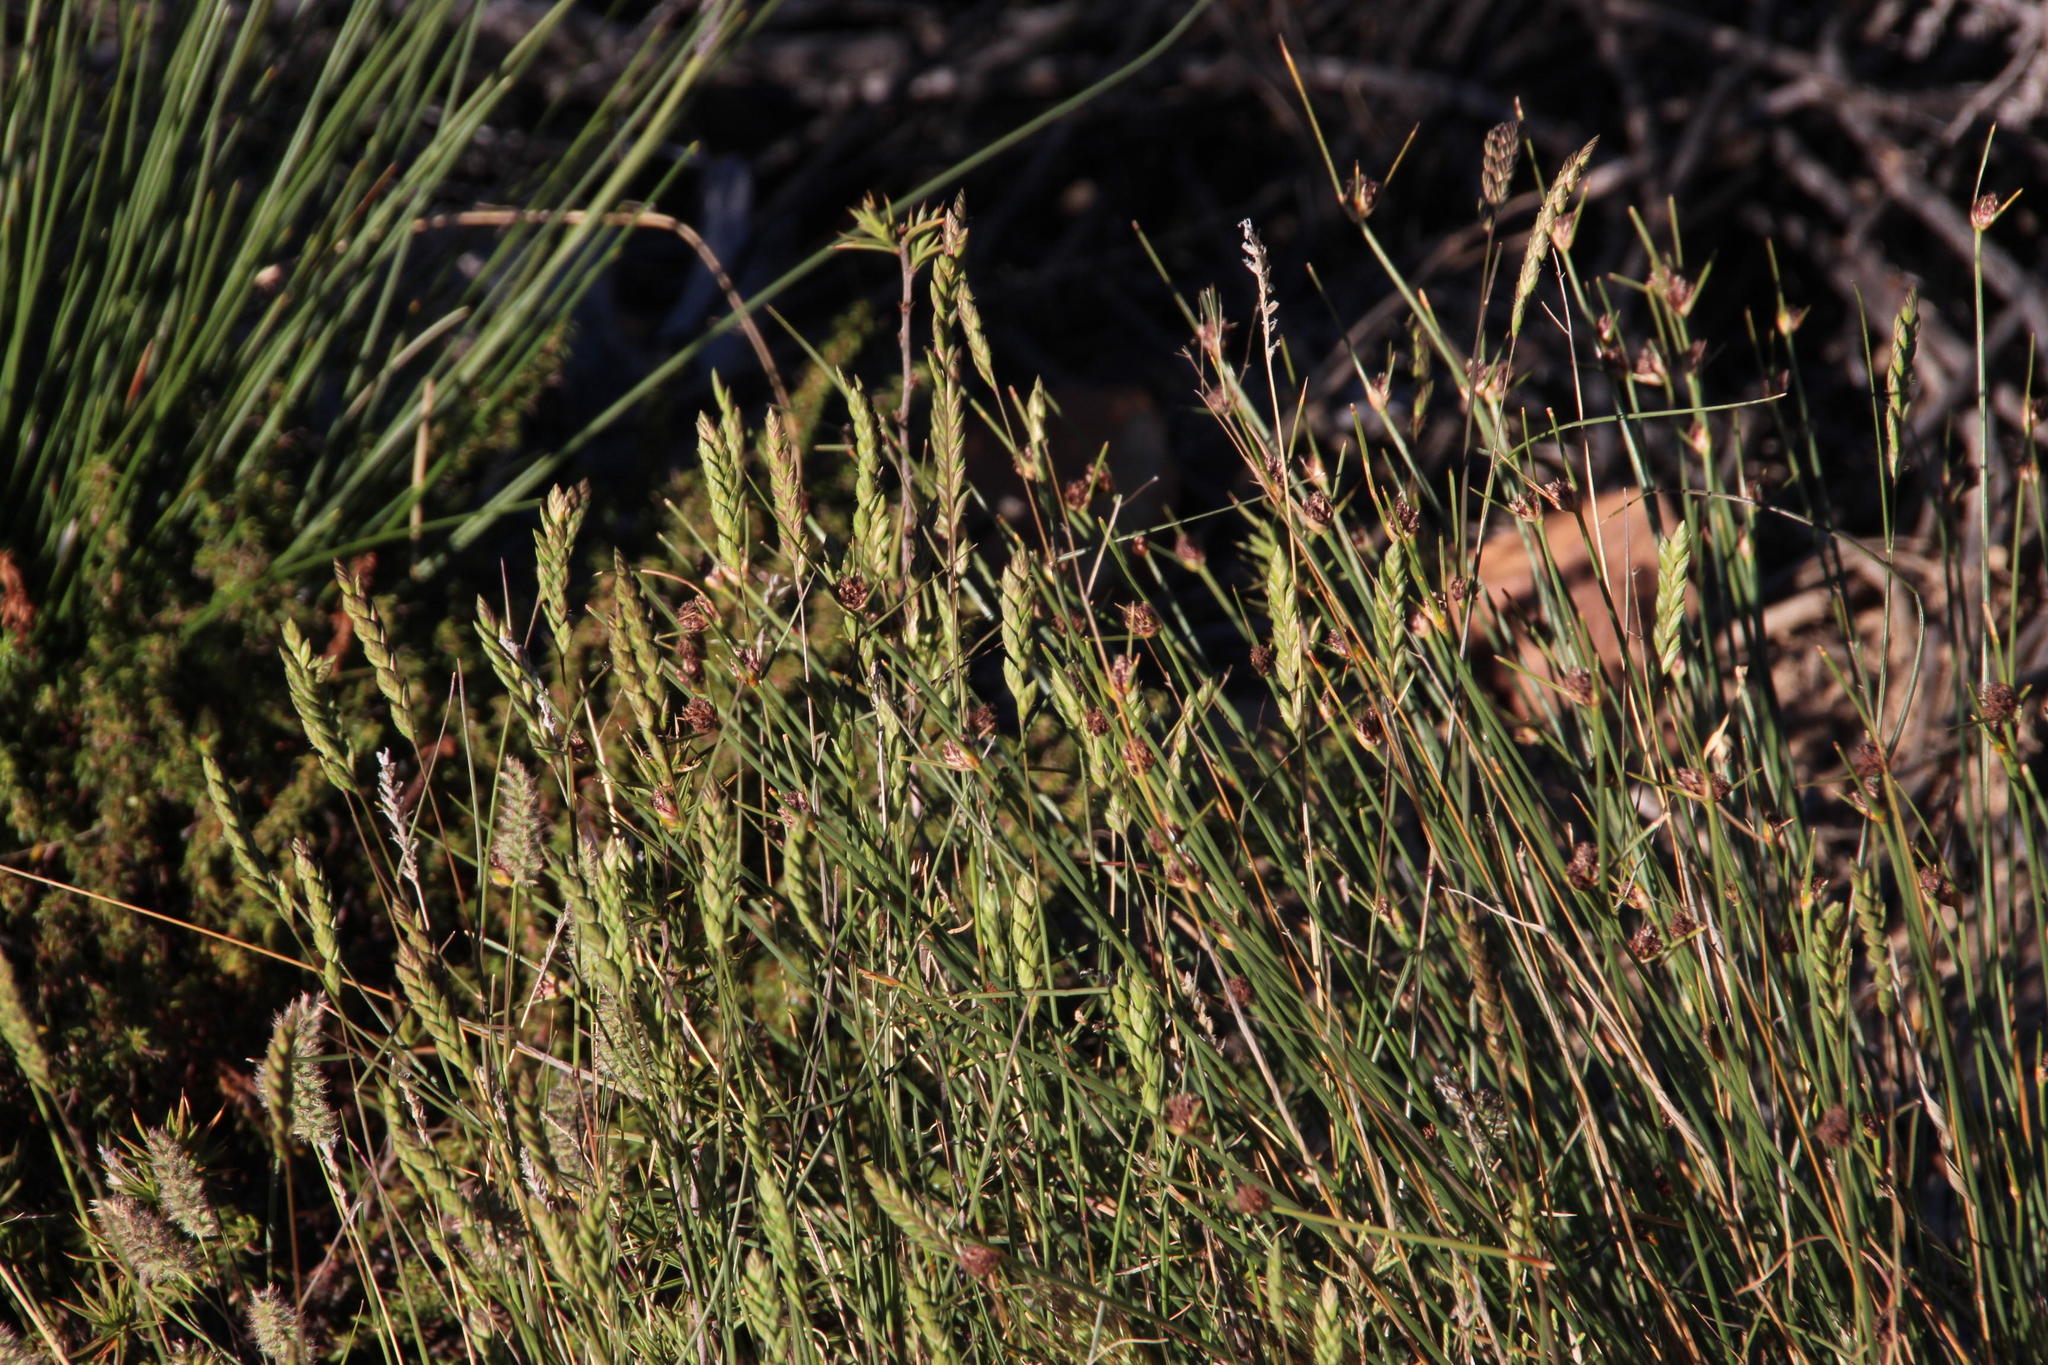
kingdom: Plantae
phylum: Tracheophyta
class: Liliopsida
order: Poales
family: Poaceae
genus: Tribolium
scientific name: Tribolium uniolae
